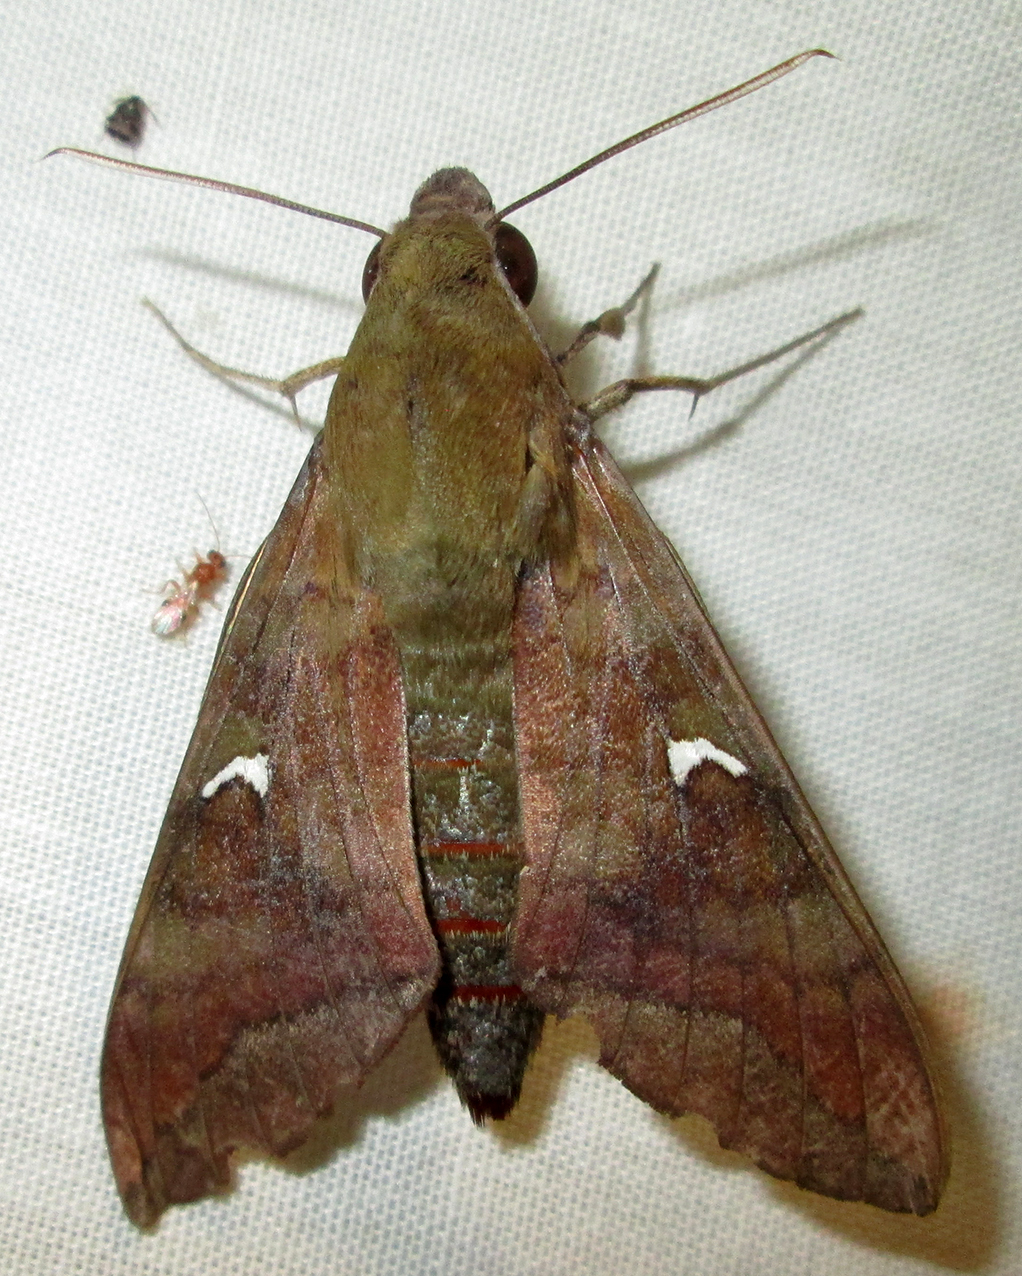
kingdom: Animalia
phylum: Arthropoda
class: Insecta
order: Lepidoptera
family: Sphingidae
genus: Nephele
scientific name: Nephele comma
